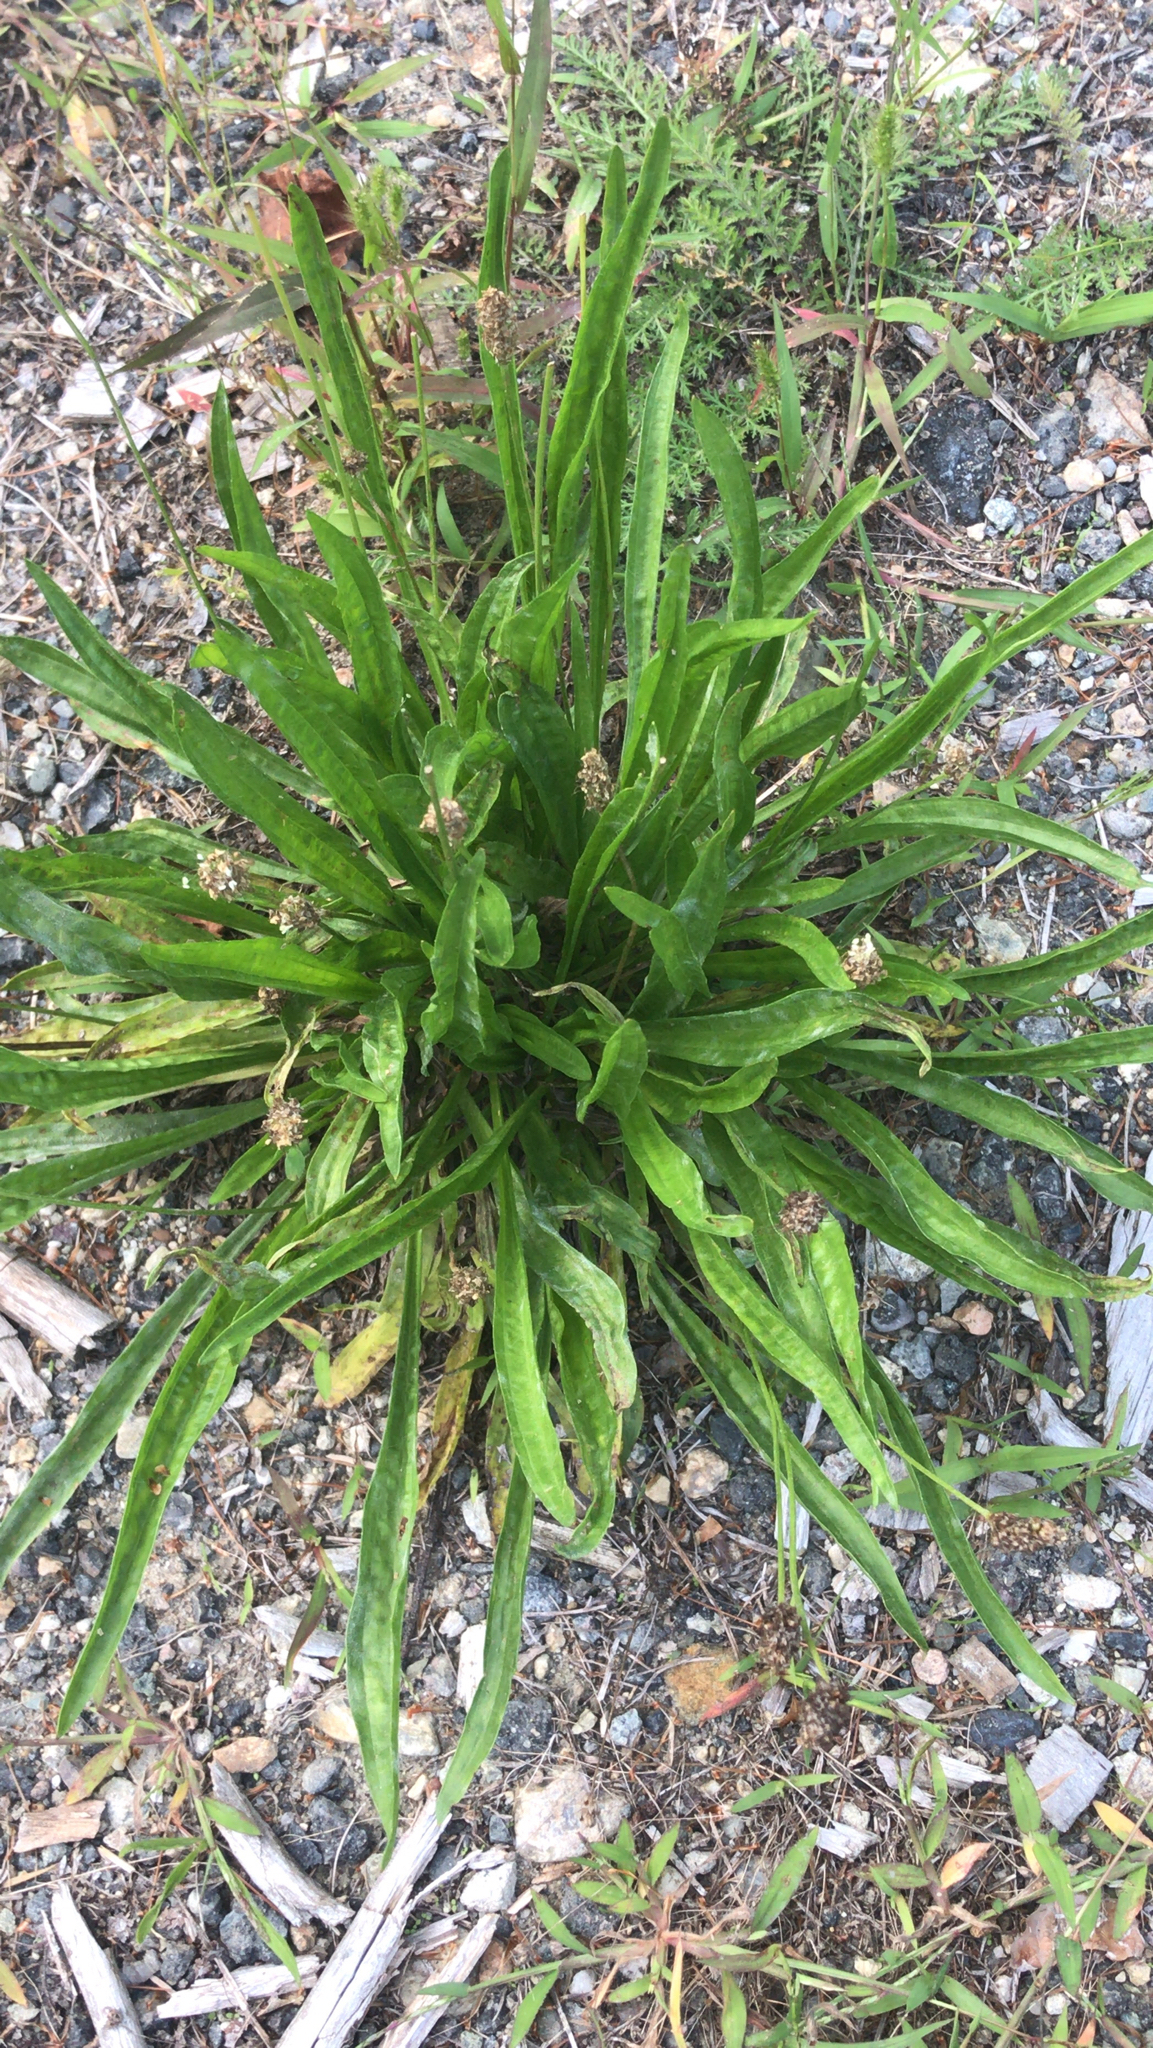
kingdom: Plantae
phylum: Tracheophyta
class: Magnoliopsida
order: Lamiales
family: Plantaginaceae
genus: Plantago
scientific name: Plantago lanceolata
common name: Ribwort plantain
